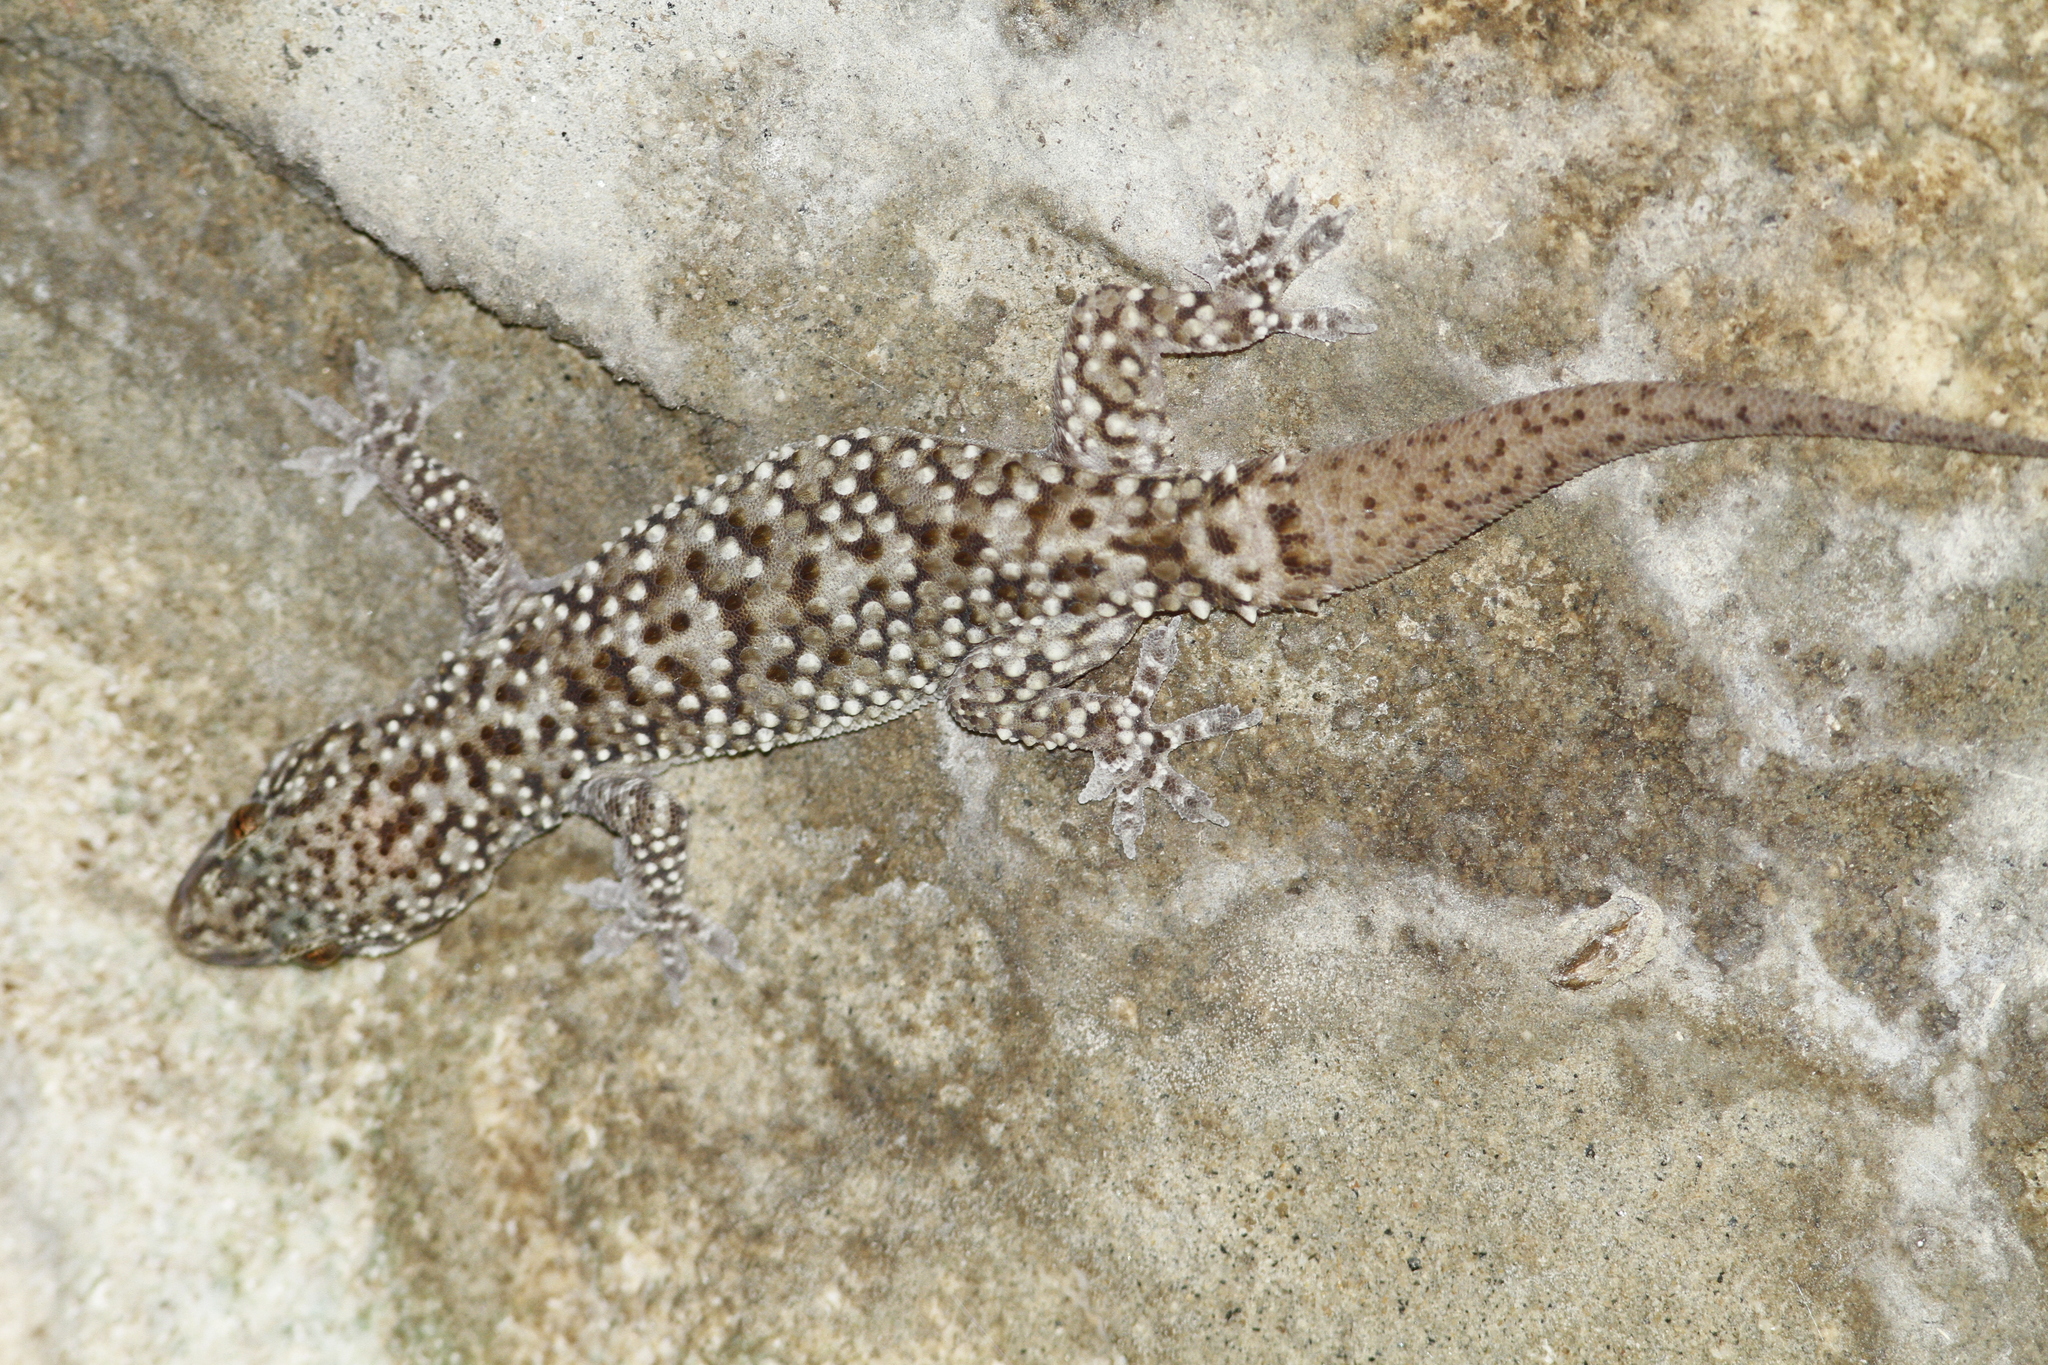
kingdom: Animalia
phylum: Chordata
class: Squamata
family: Gekkonidae
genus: Hemidactylus
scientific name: Hemidactylus turcicus
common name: Turkish gecko
